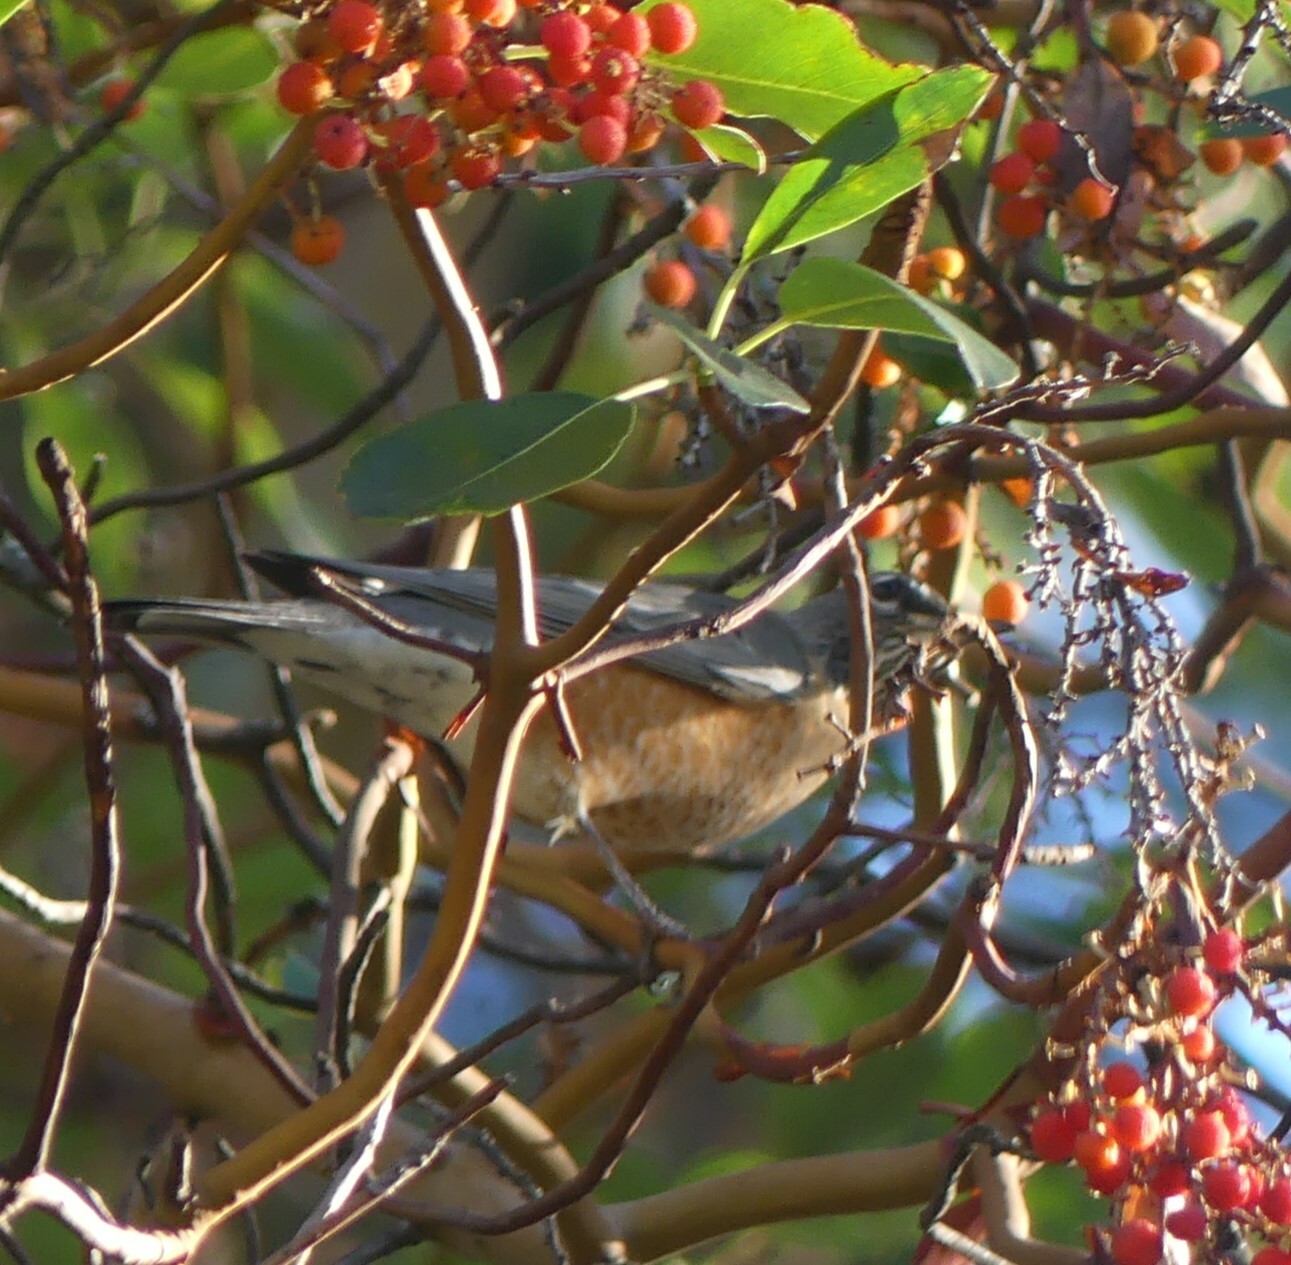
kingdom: Animalia
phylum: Chordata
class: Aves
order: Passeriformes
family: Turdidae
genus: Turdus
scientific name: Turdus migratorius
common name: American robin
